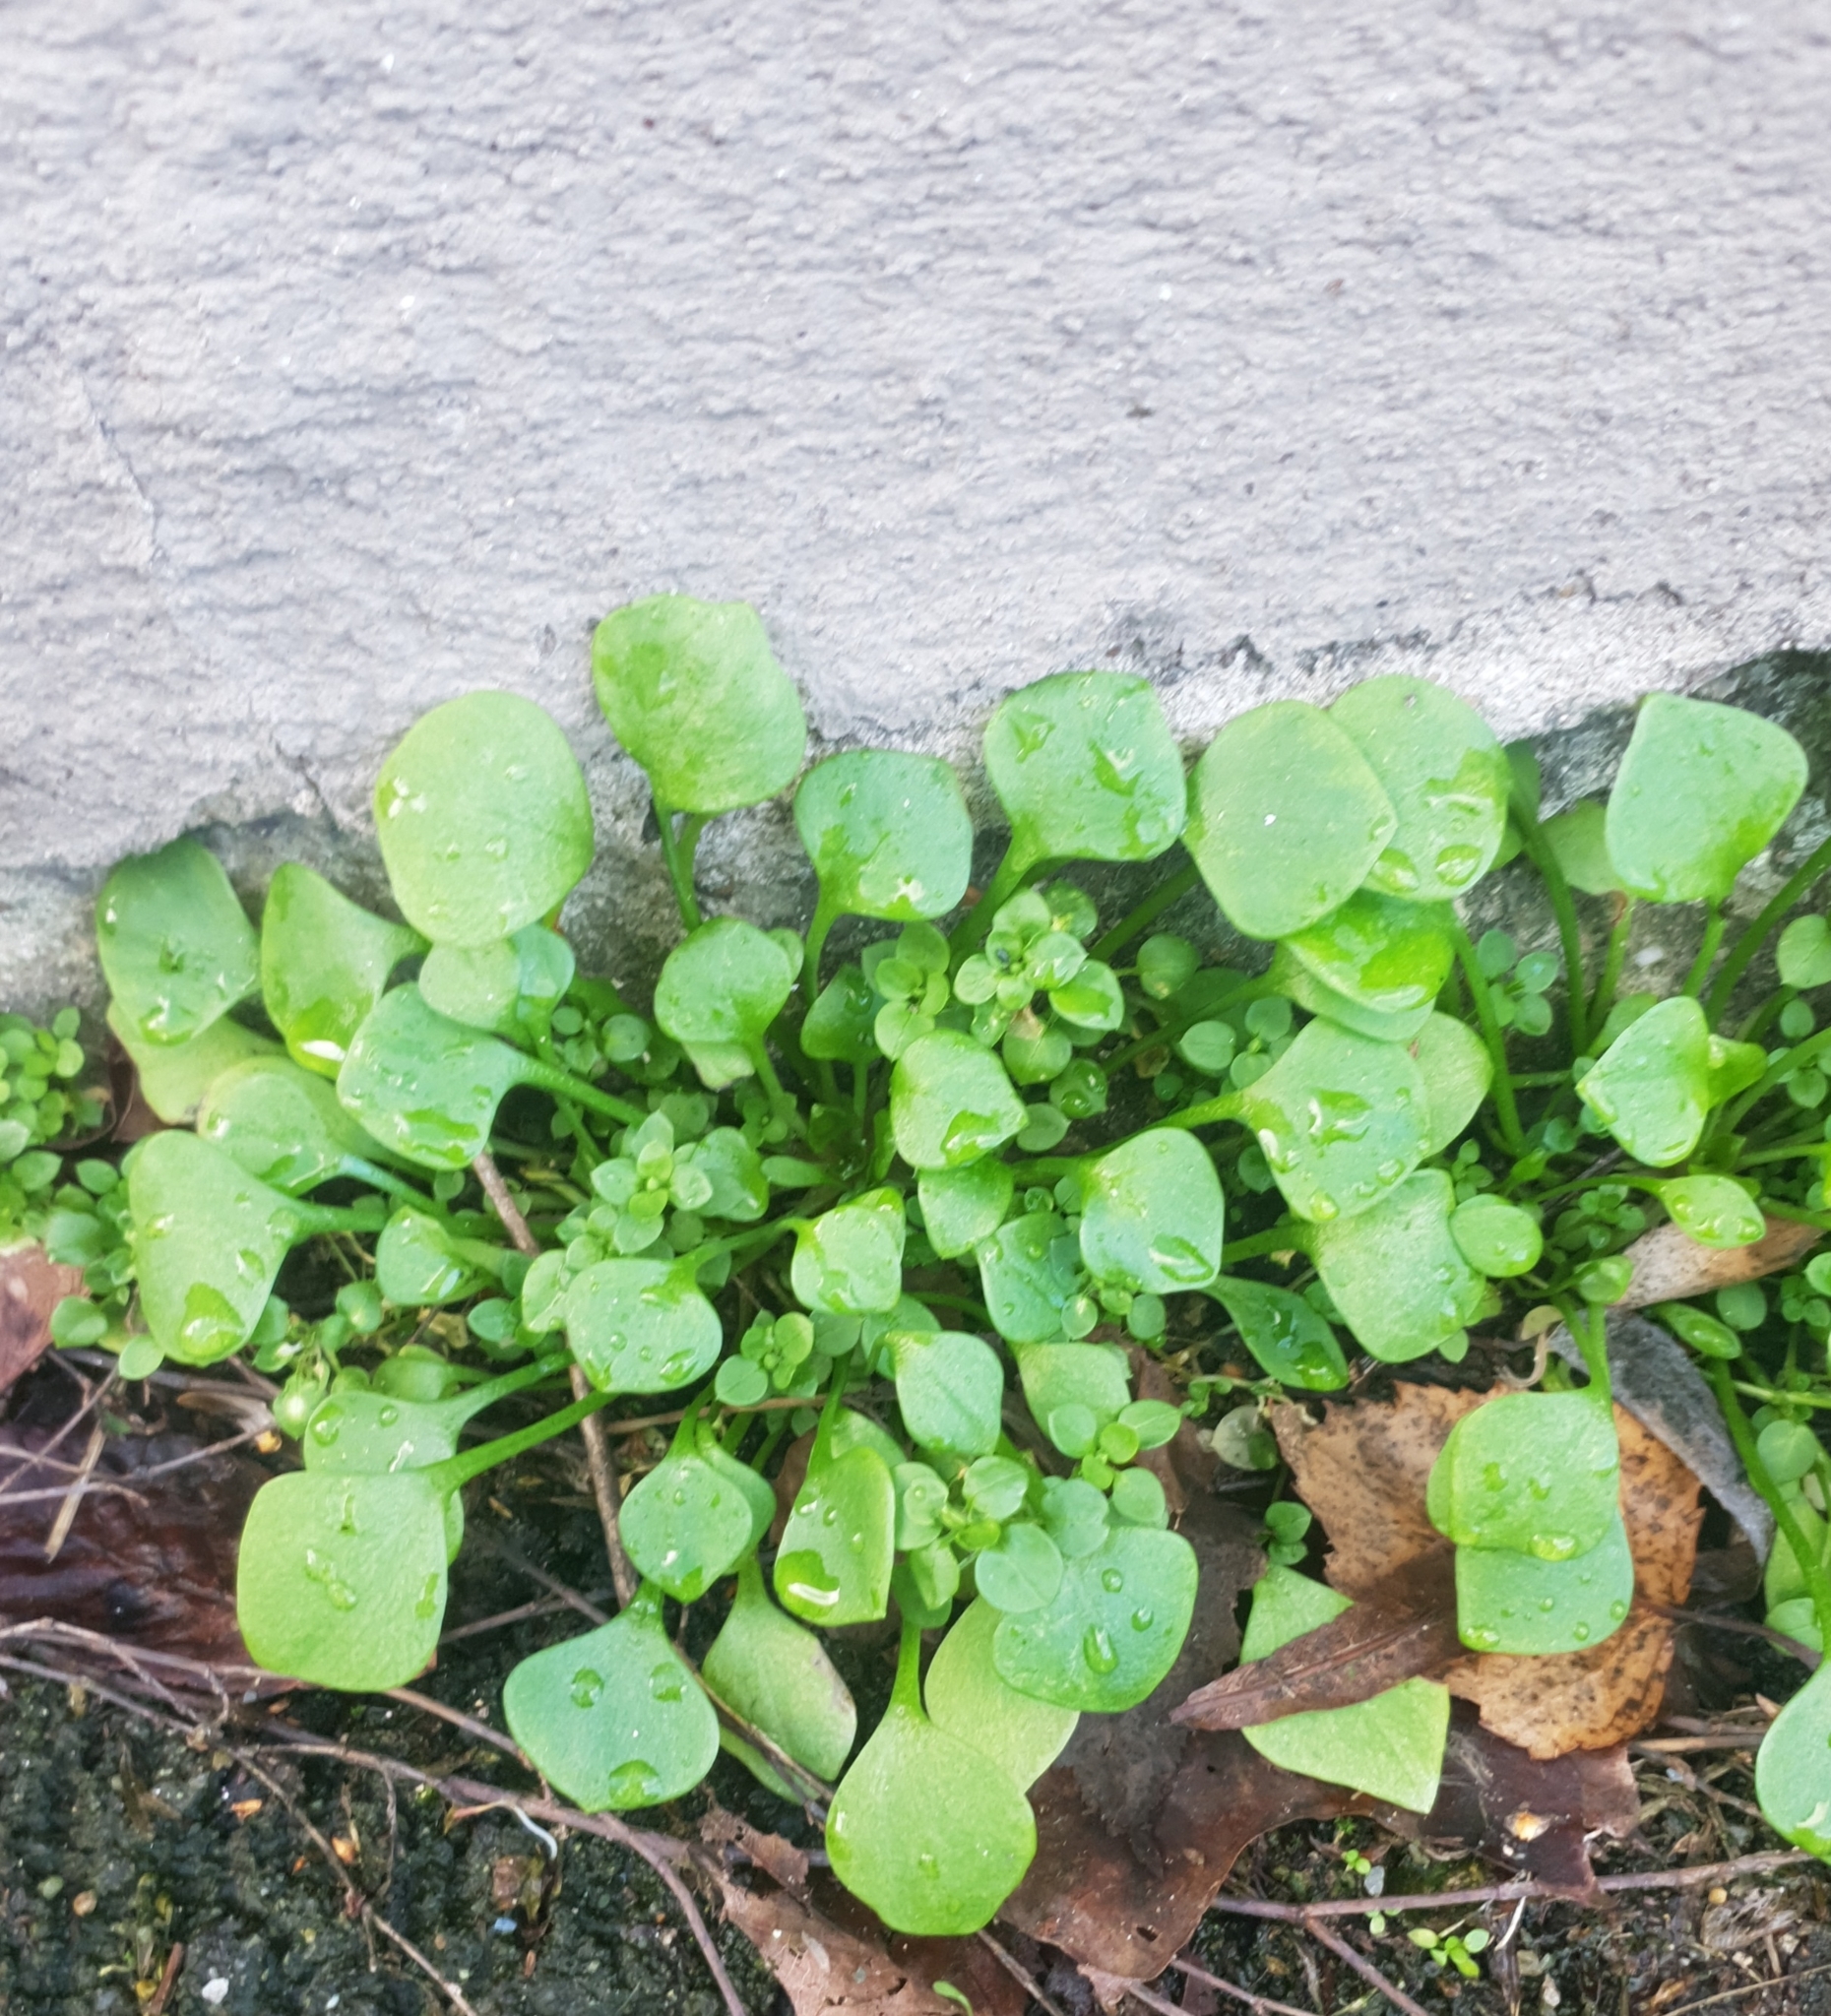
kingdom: Plantae
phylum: Tracheophyta
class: Magnoliopsida
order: Caryophyllales
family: Montiaceae
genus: Claytonia
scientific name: Claytonia perfoliata
